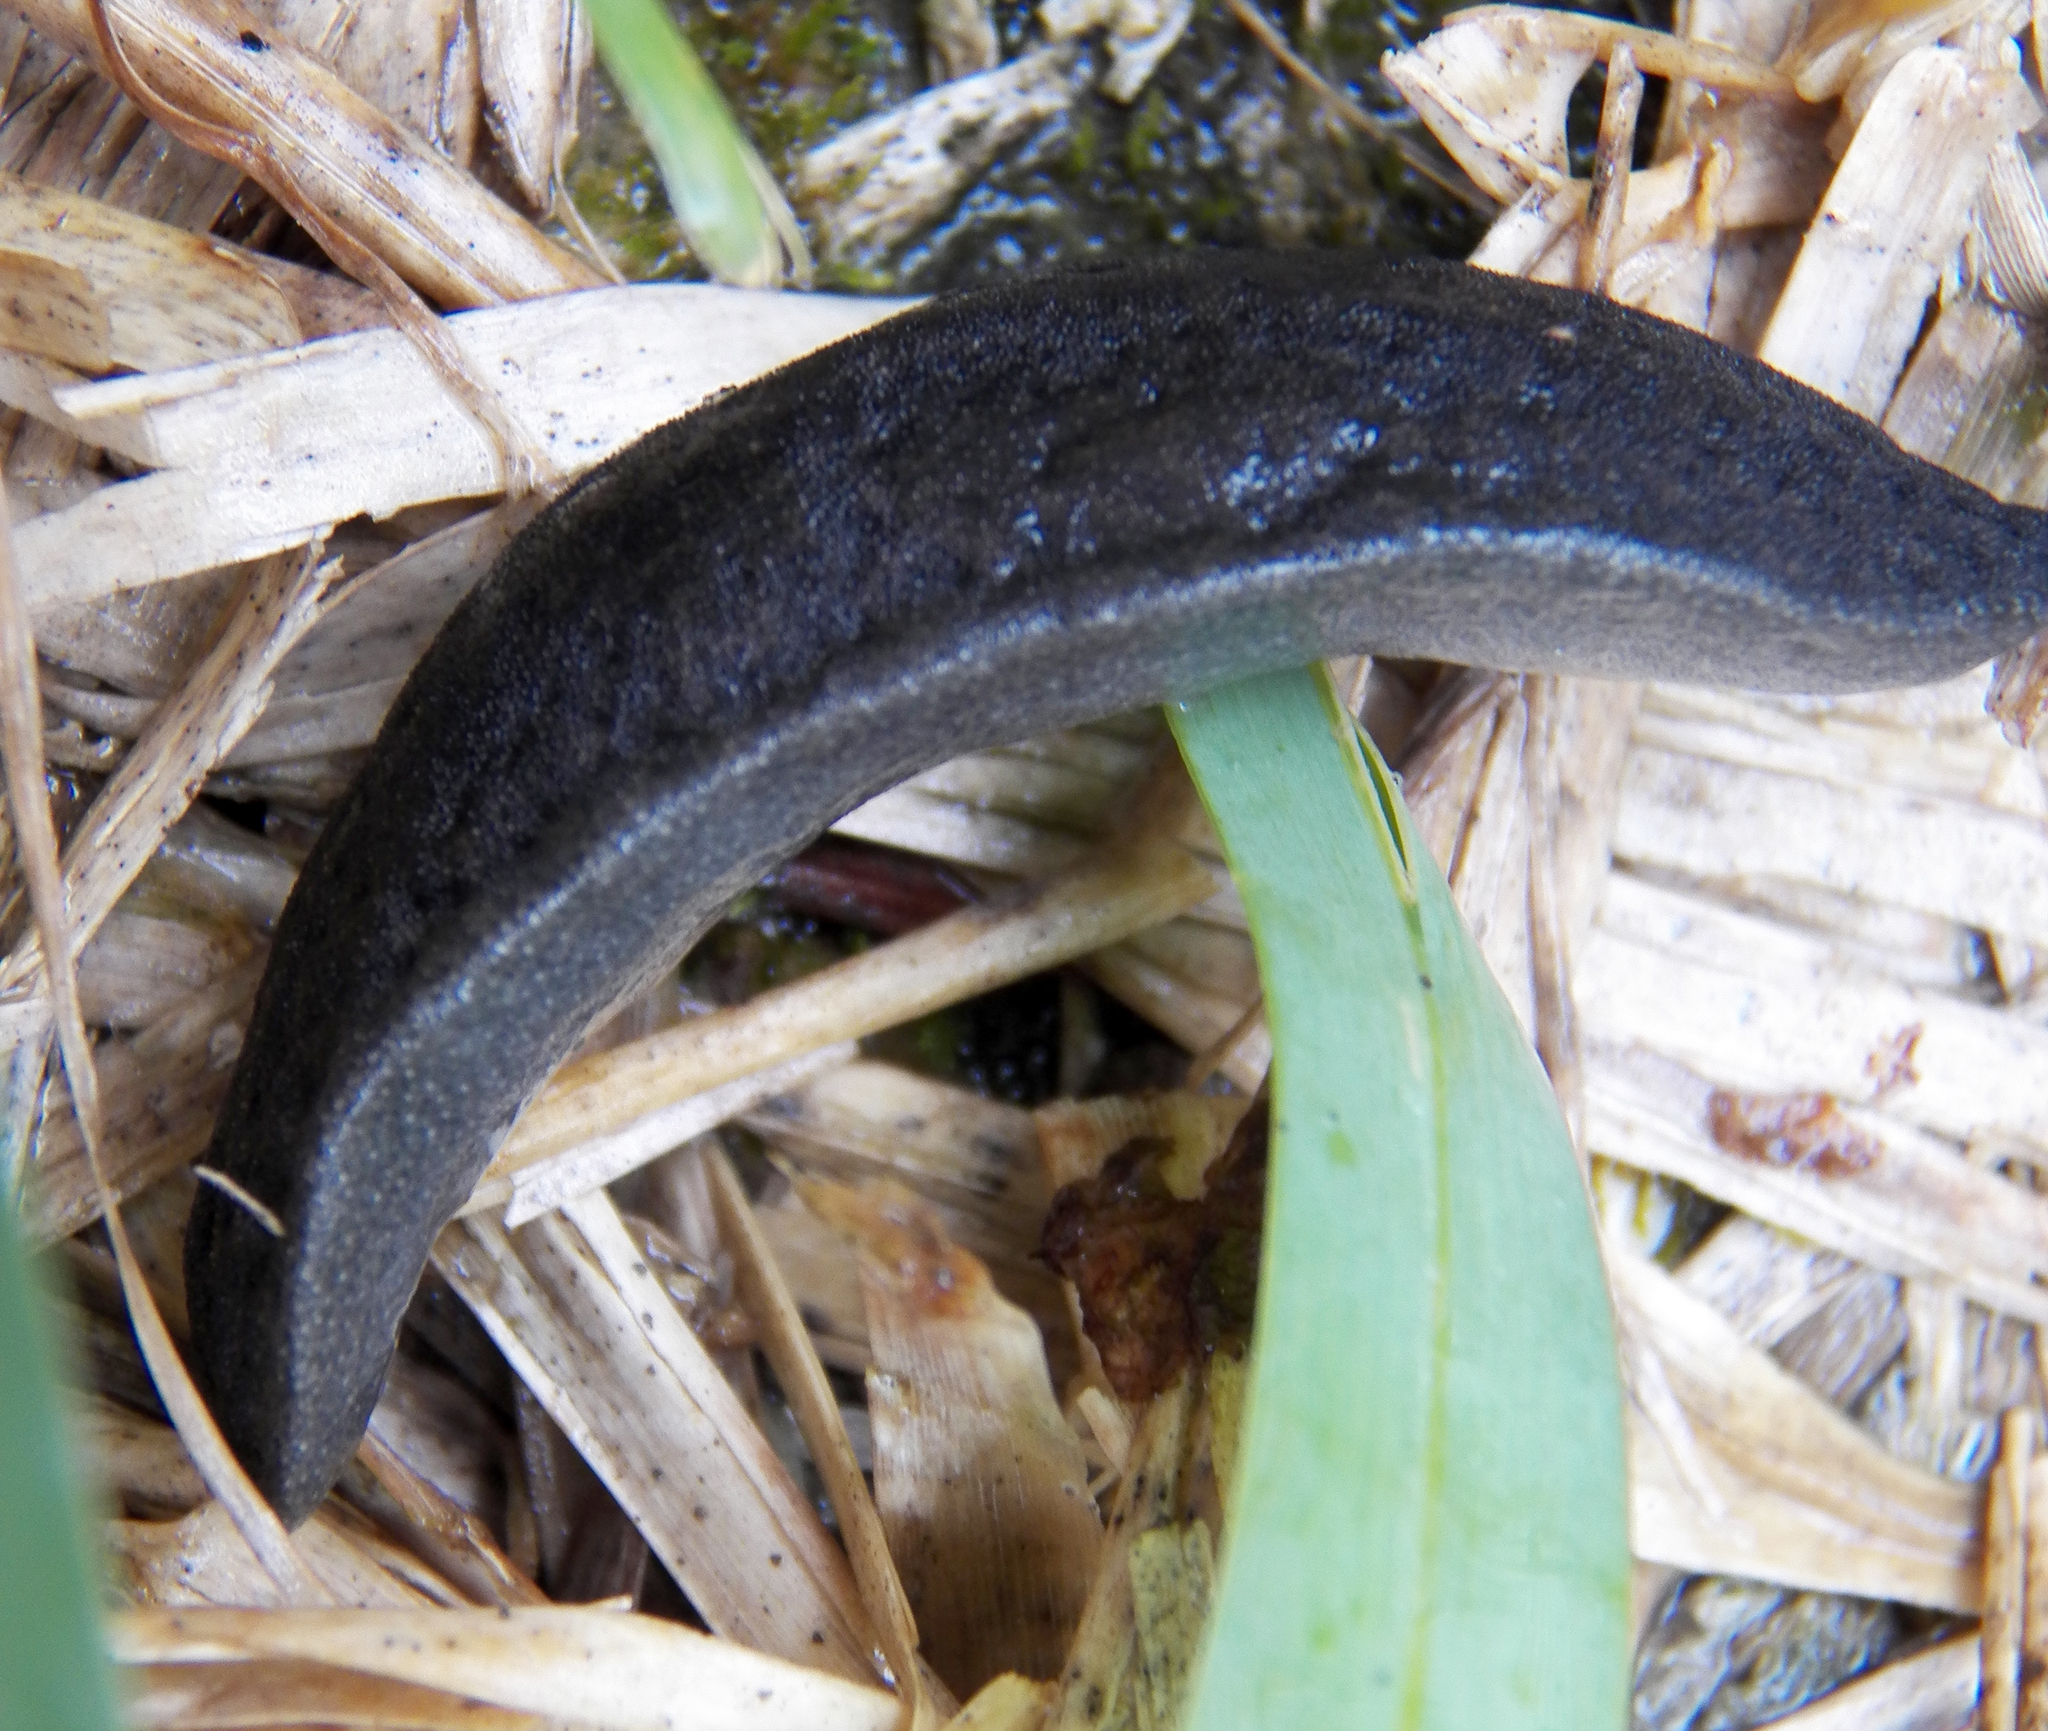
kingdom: Animalia
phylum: Mollusca
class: Gastropoda
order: Systellommatophora
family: Veronicellidae
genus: Belocaulus
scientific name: Belocaulus angustipes
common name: Black velvet leatherleaf slug
